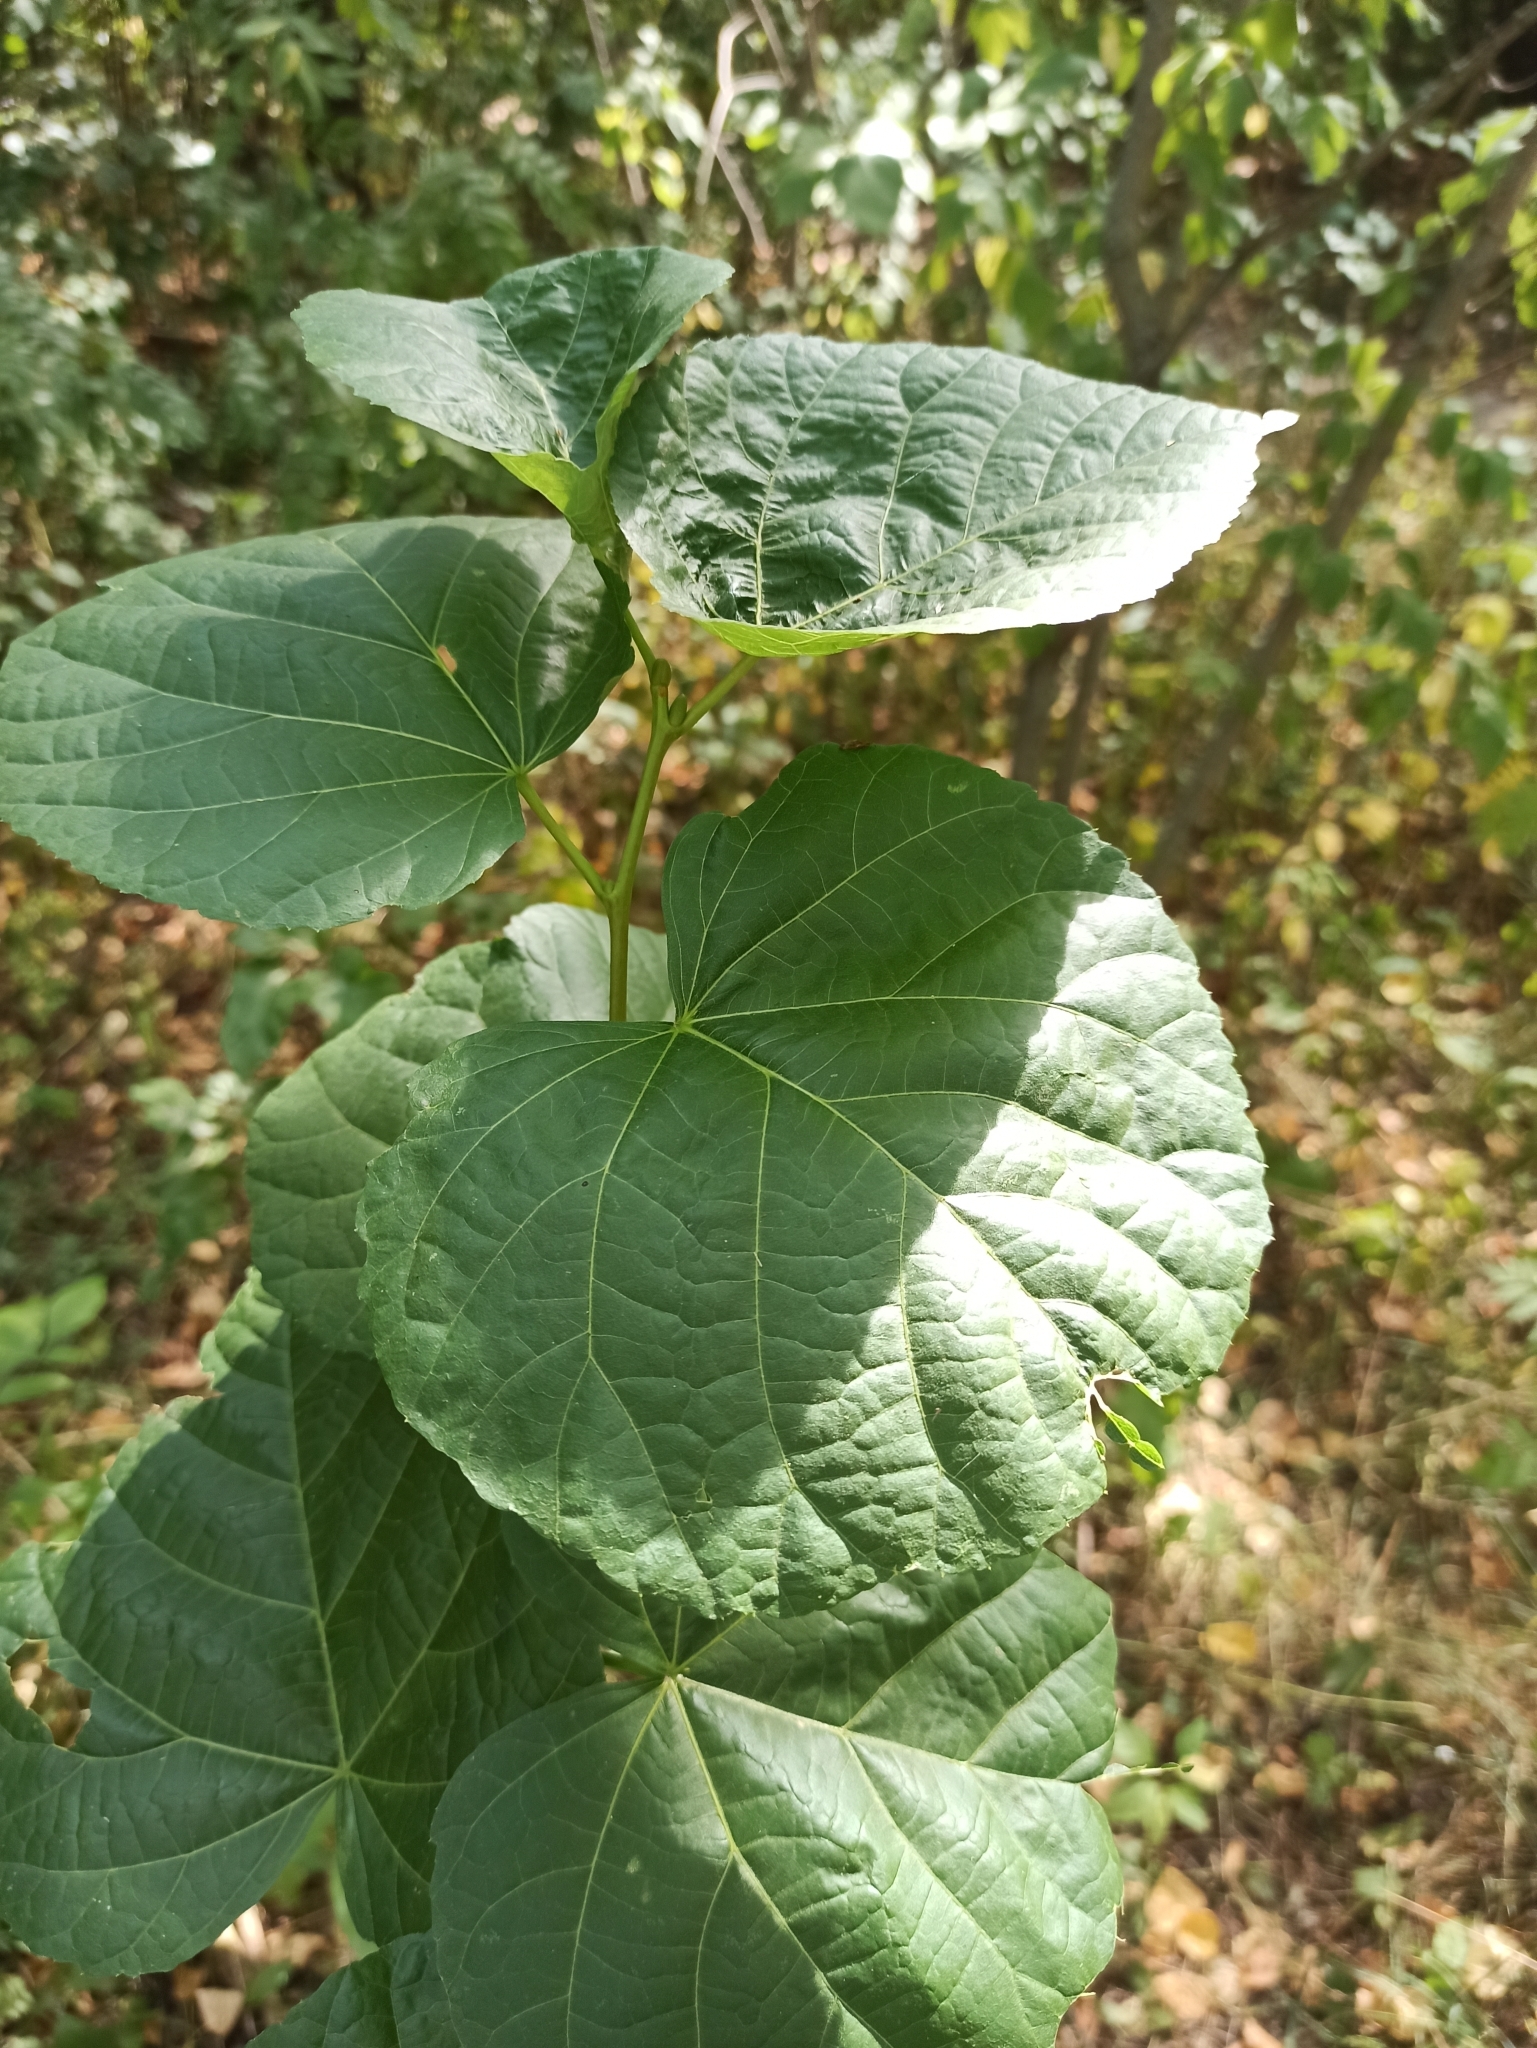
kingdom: Plantae
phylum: Tracheophyta
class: Magnoliopsida
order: Malvales
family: Malvaceae
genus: Tilia
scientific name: Tilia cordata
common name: Small-leaved lime
